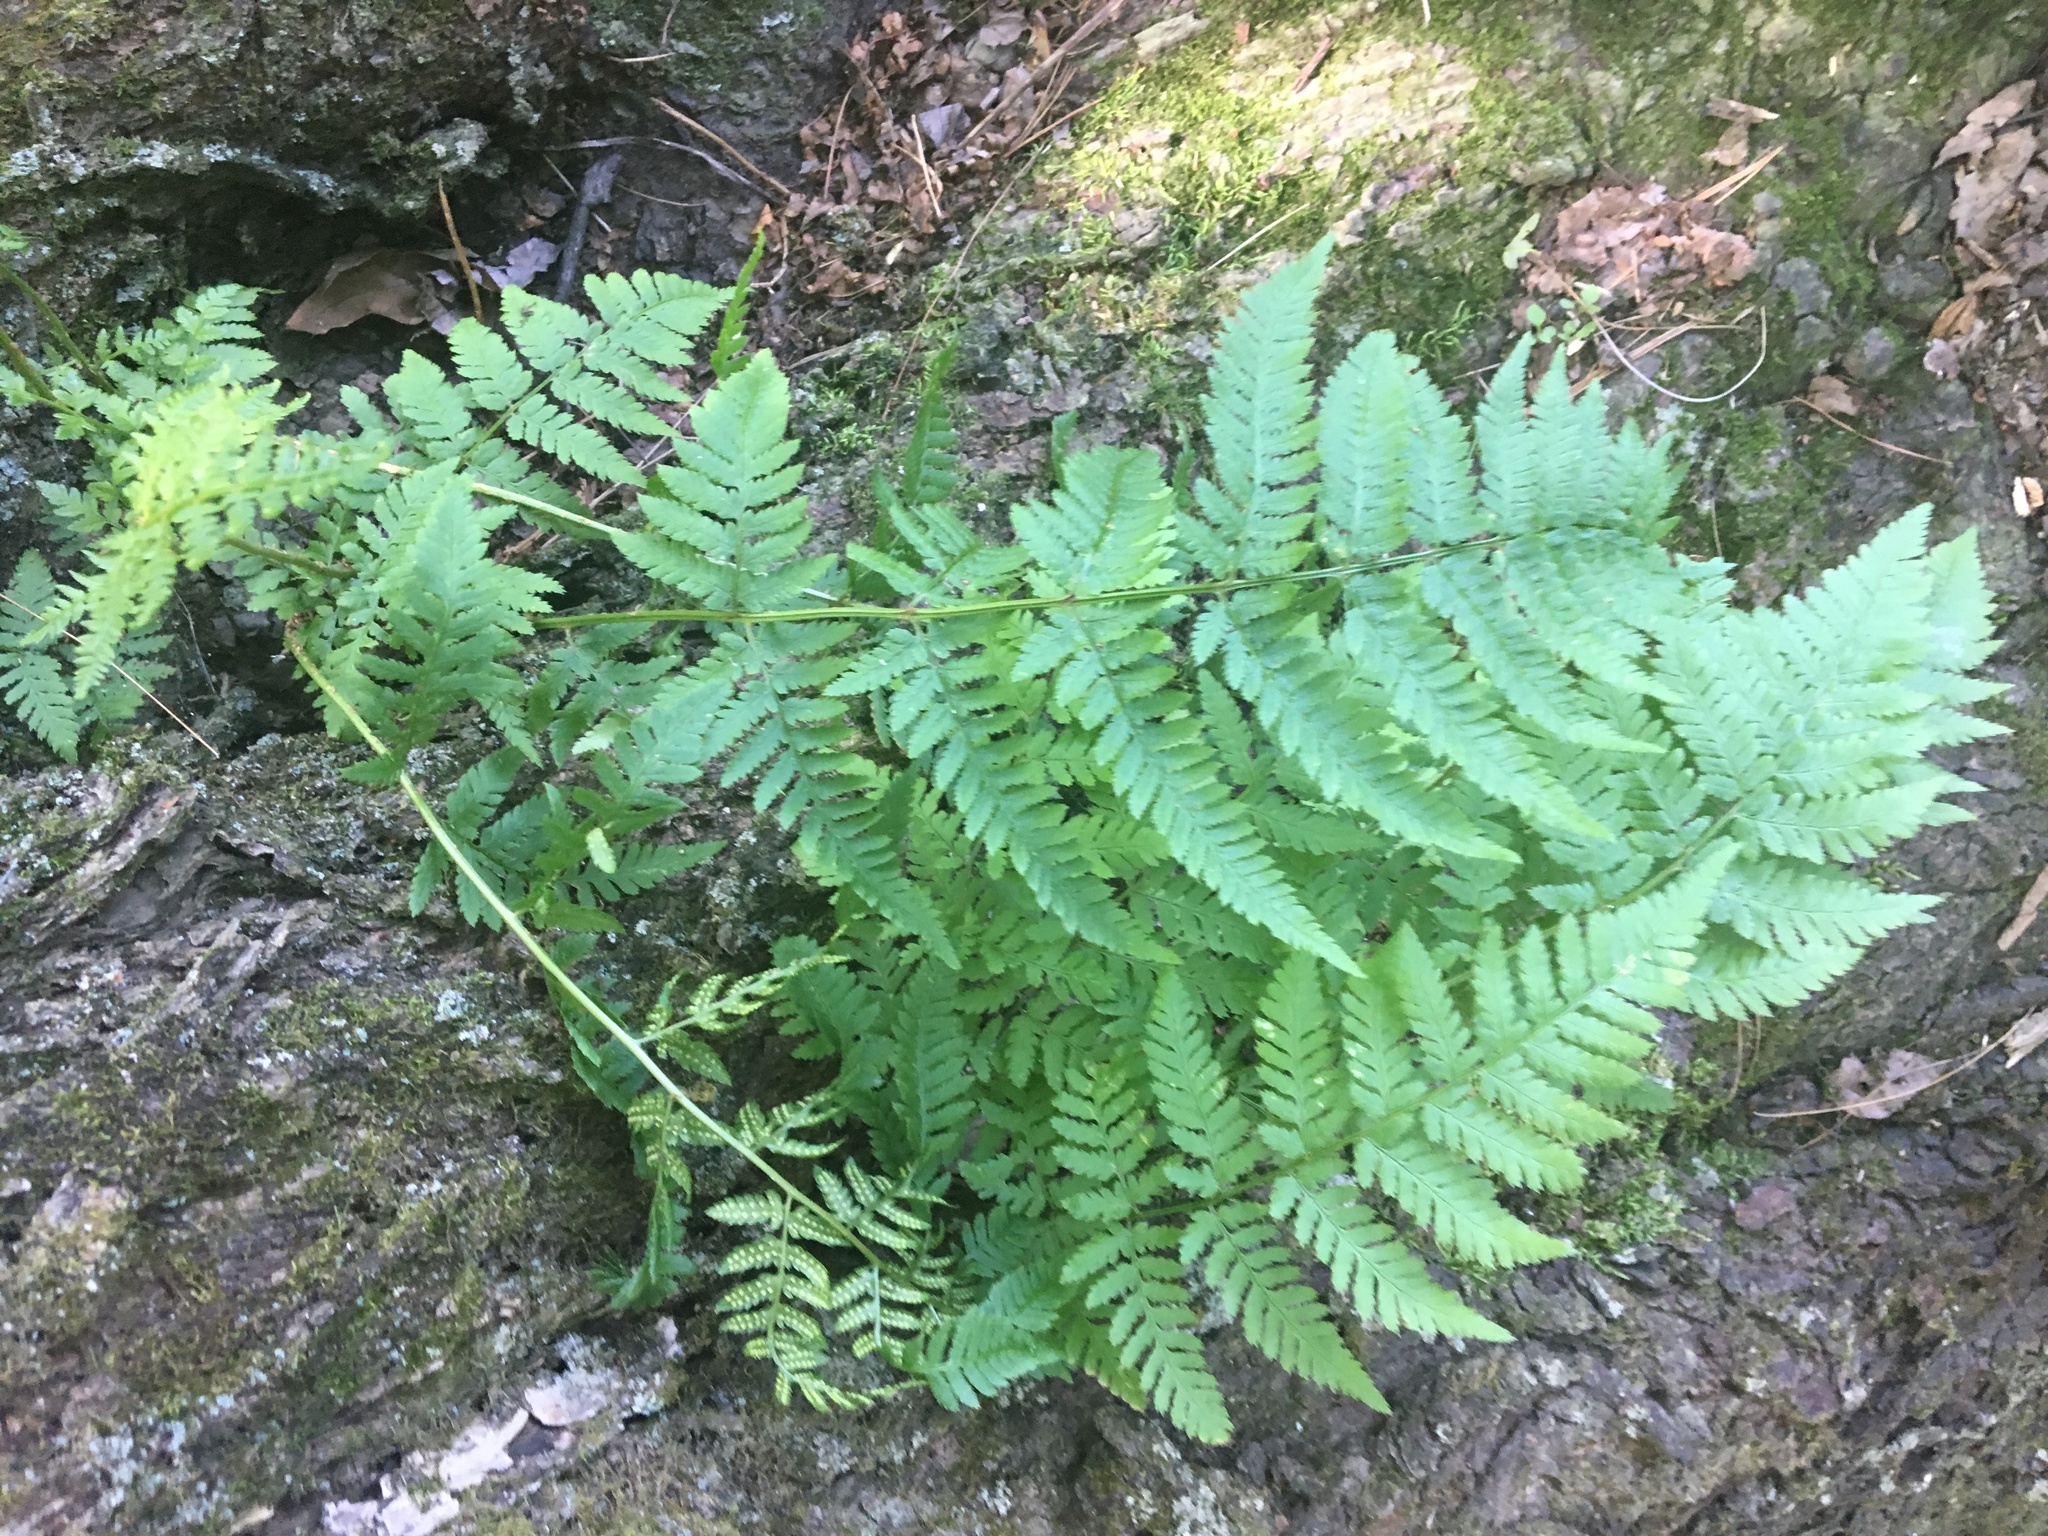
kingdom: Plantae
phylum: Tracheophyta
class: Polypodiopsida
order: Polypodiales
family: Dryopteridaceae
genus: Dryopteris
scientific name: Dryopteris carthusiana
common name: Narrow buckler-fern
